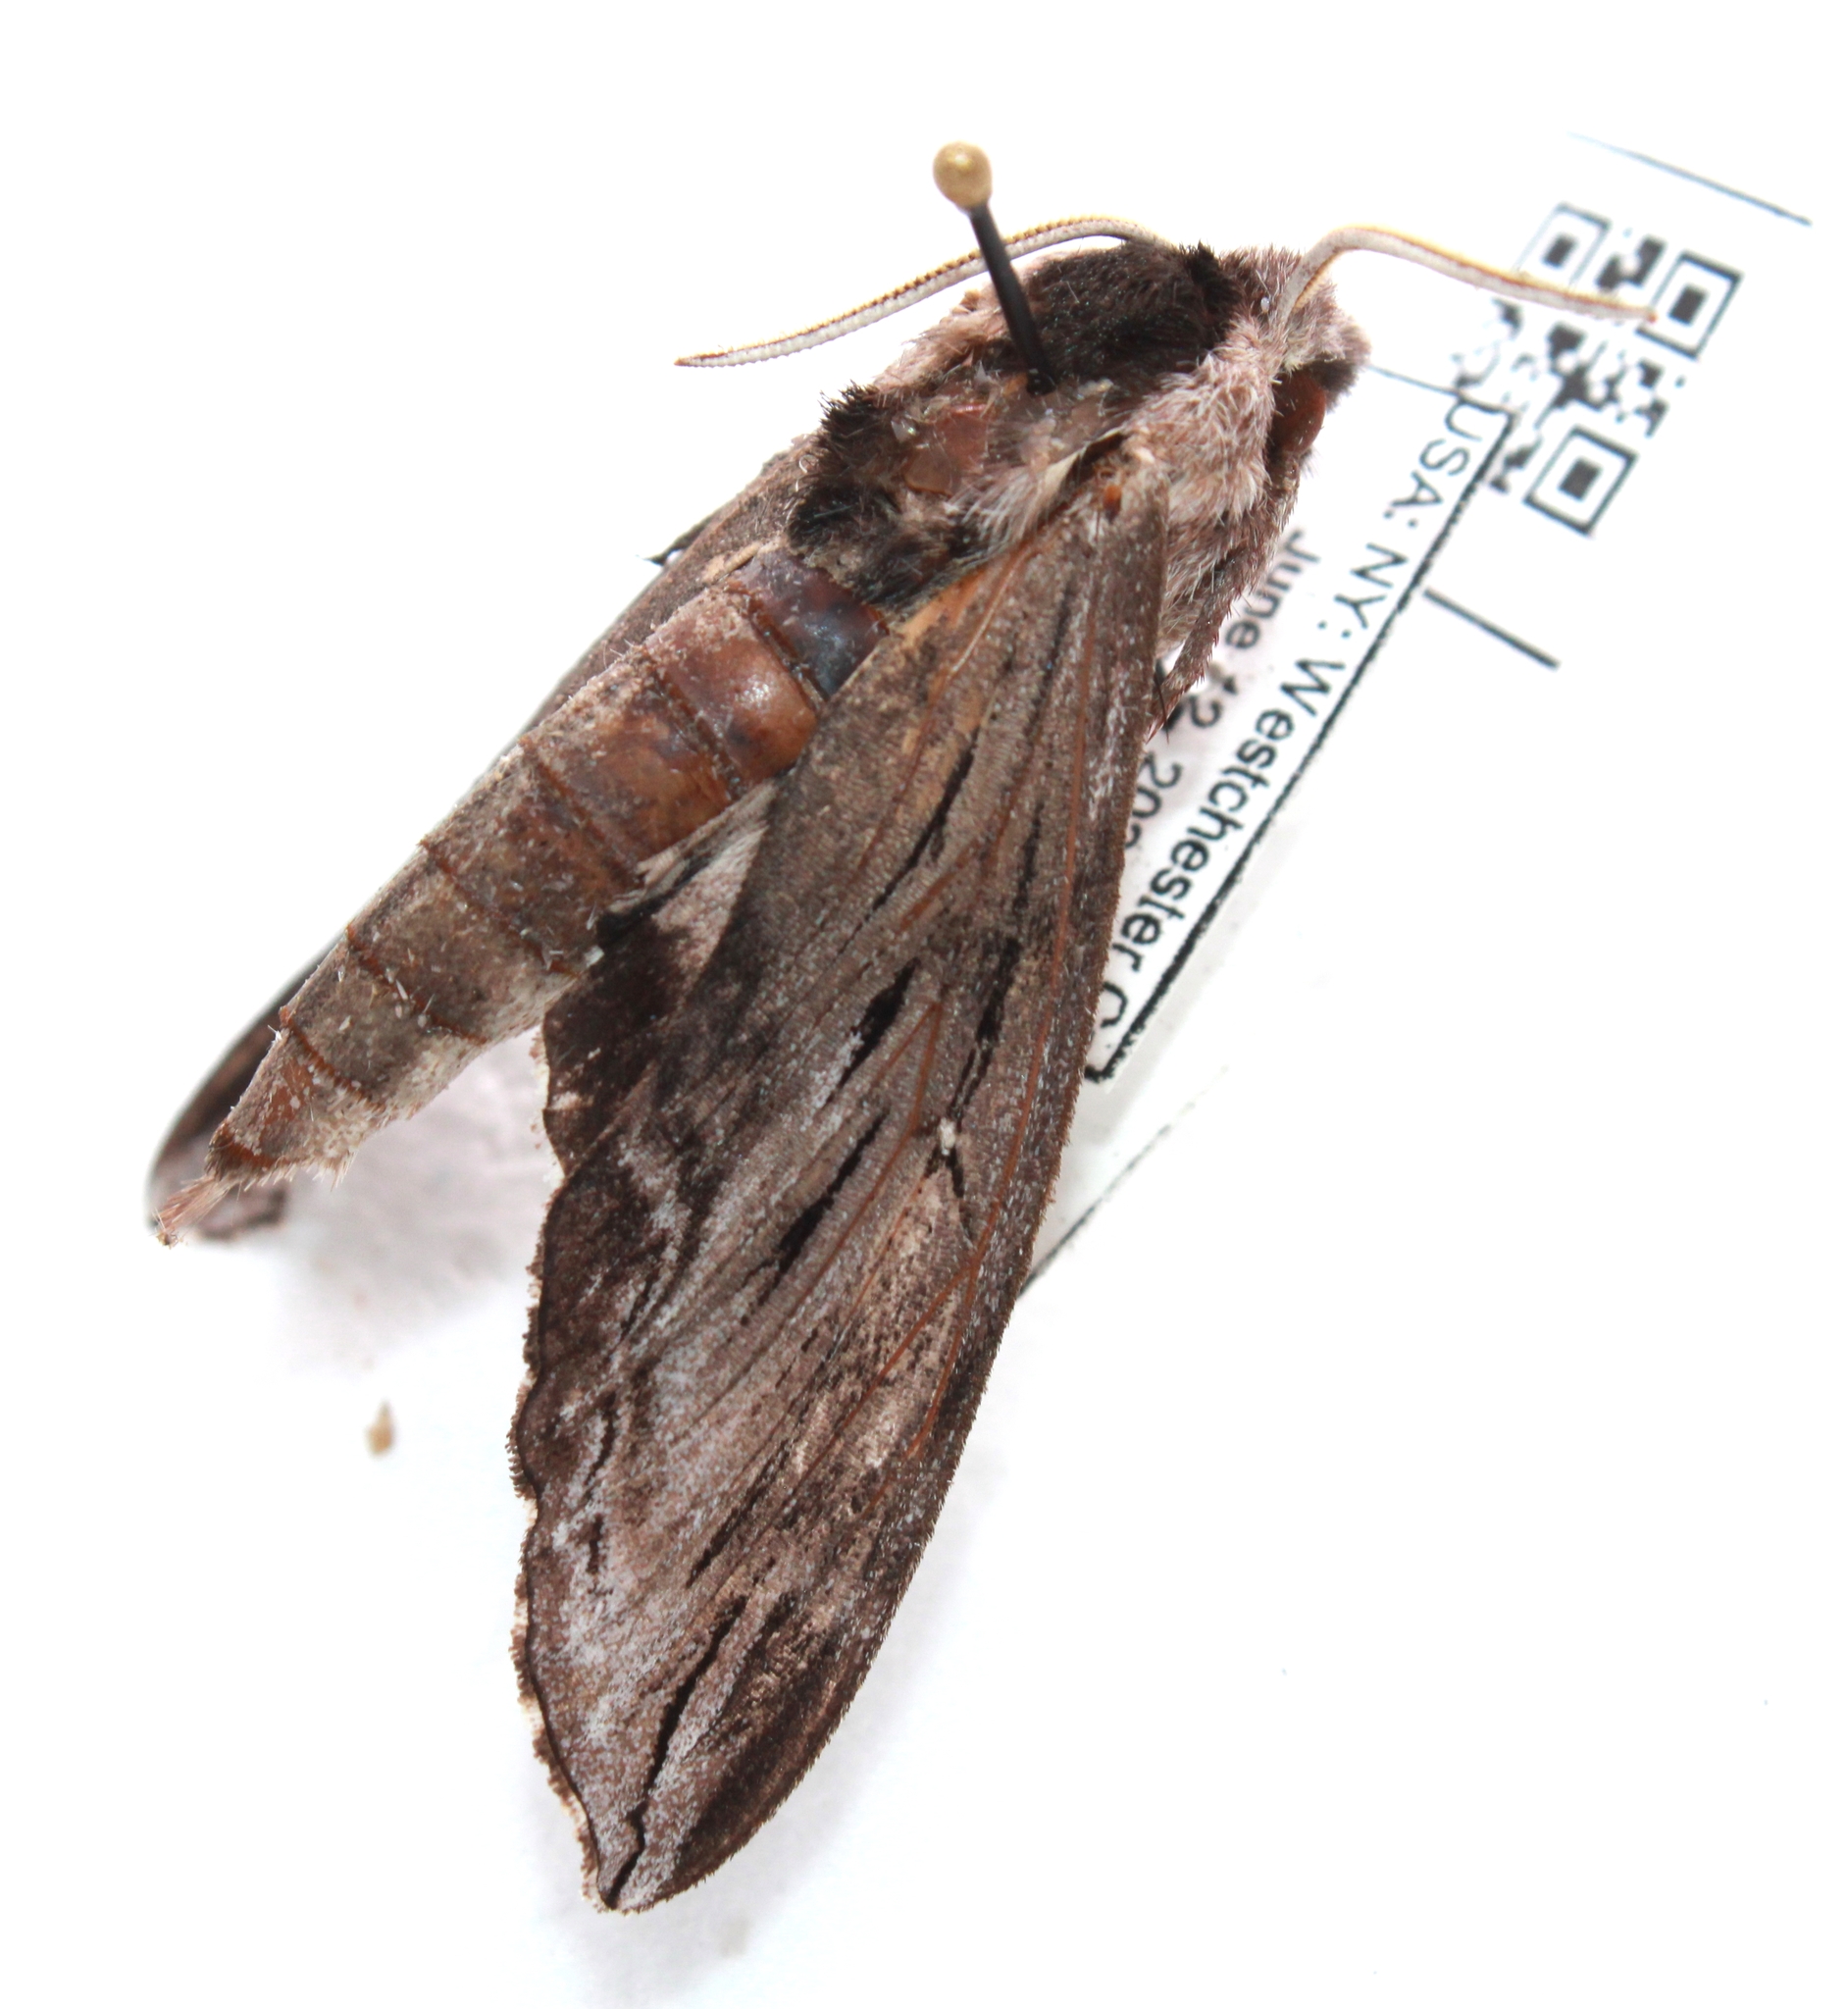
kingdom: Animalia
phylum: Arthropoda
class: Insecta
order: Lepidoptera
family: Sphingidae
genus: Sphinx
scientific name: Sphinx poecila
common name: Northern apple sphinx
